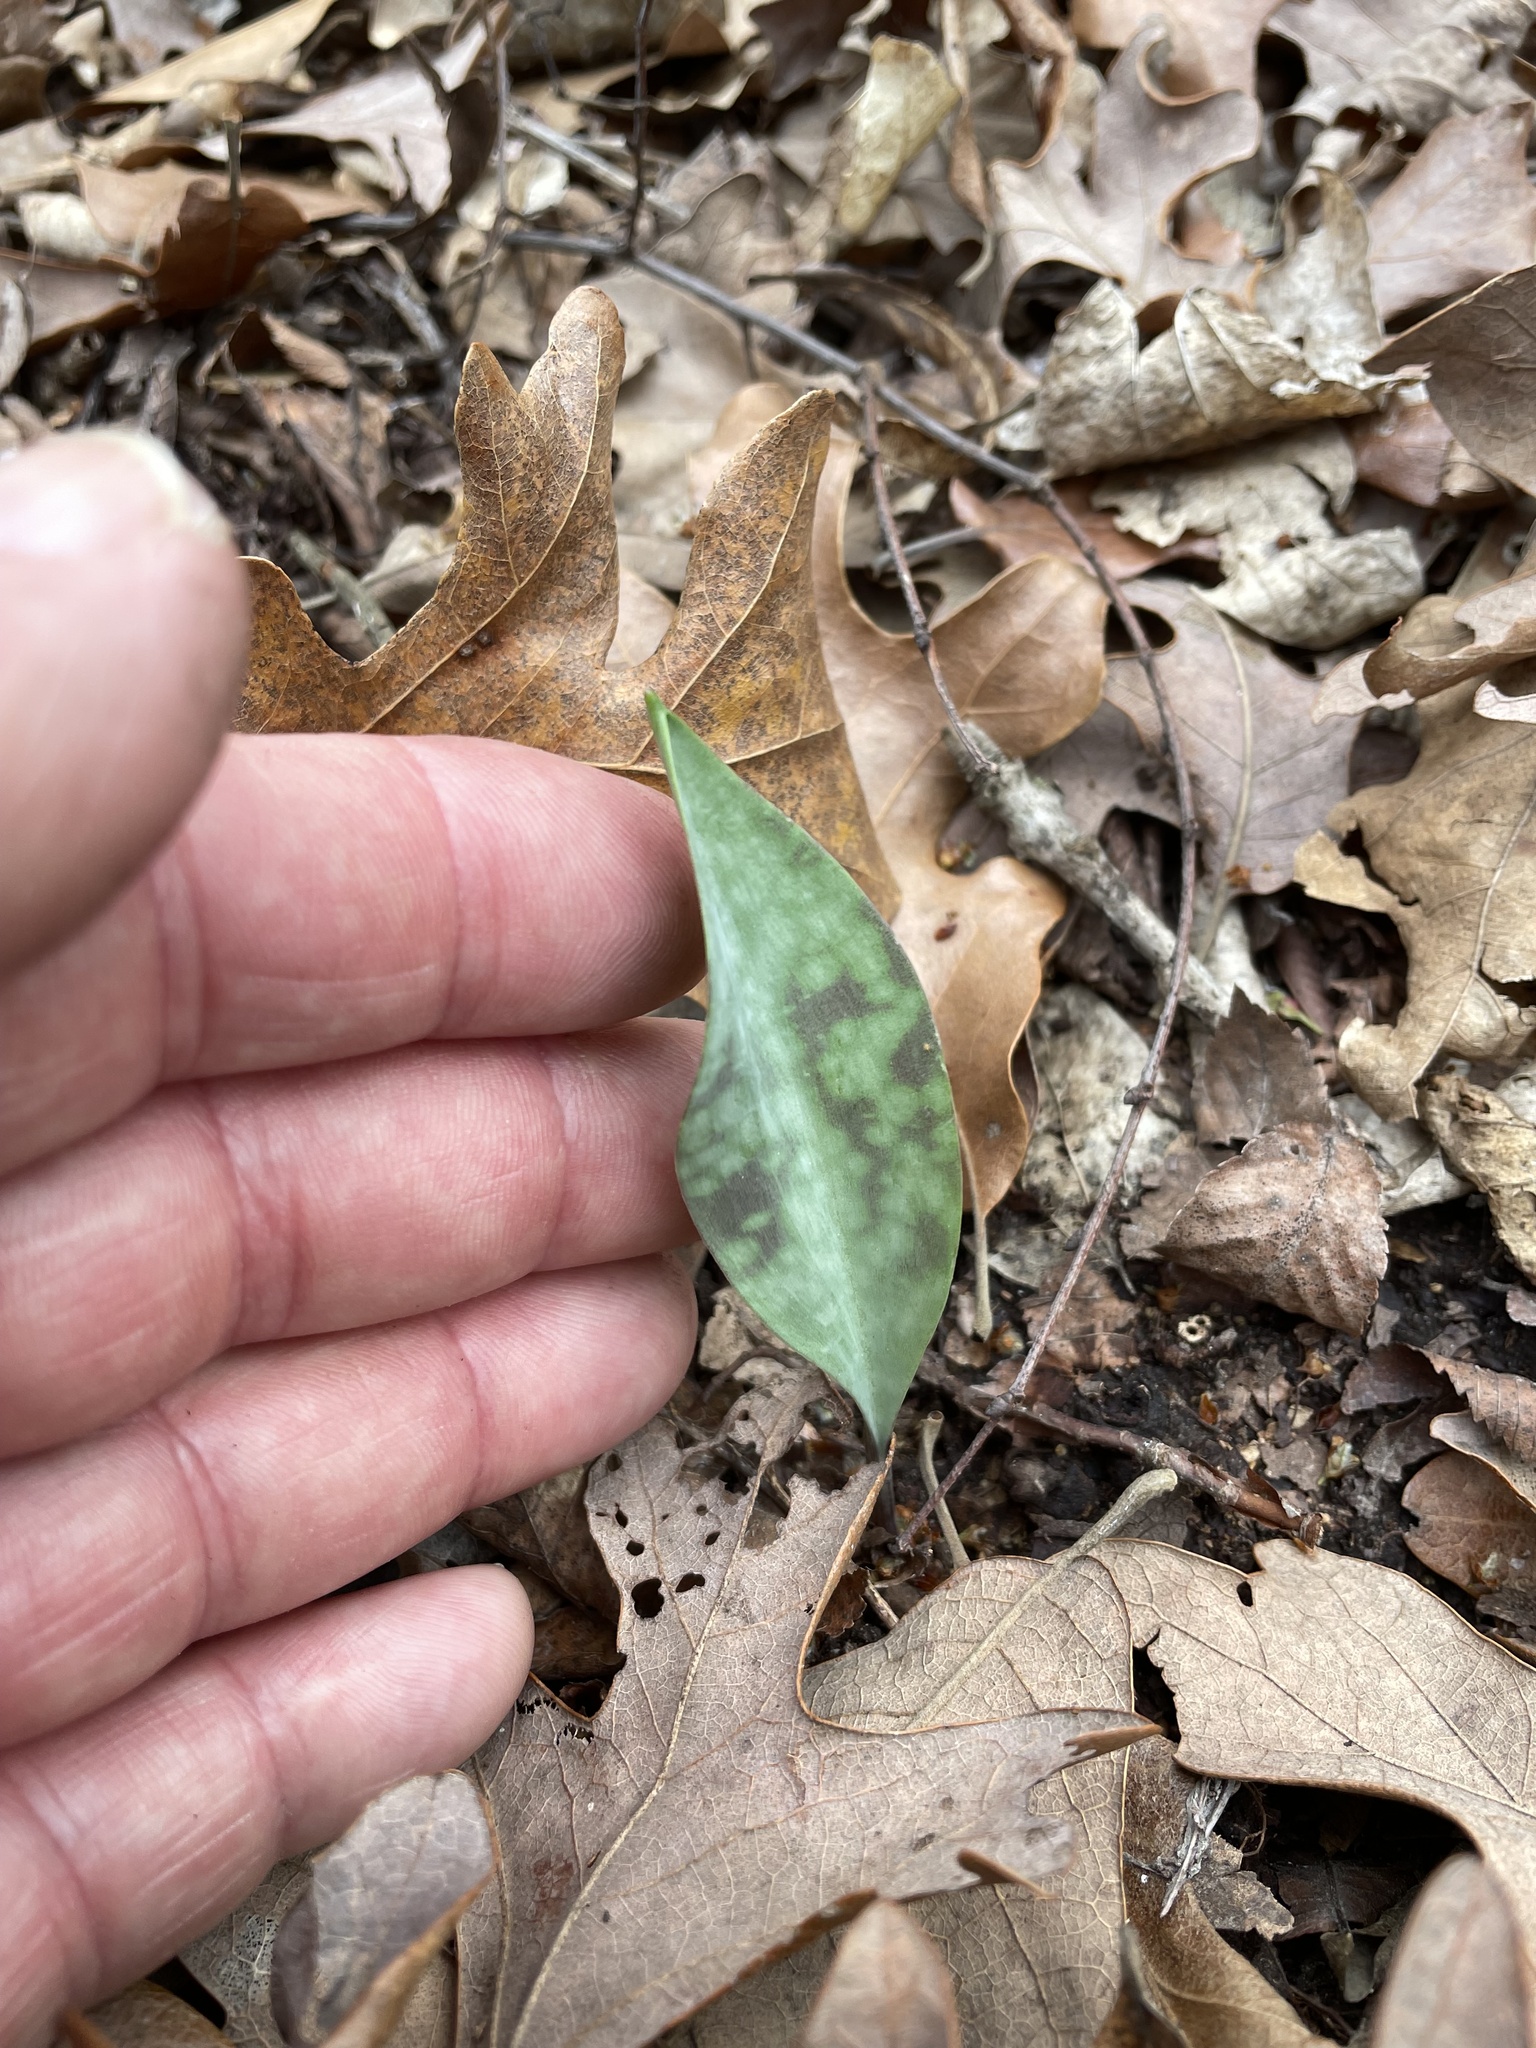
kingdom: Plantae
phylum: Tracheophyta
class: Liliopsida
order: Liliales
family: Liliaceae
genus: Erythronium
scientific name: Erythronium albidum
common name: White trout-lily
